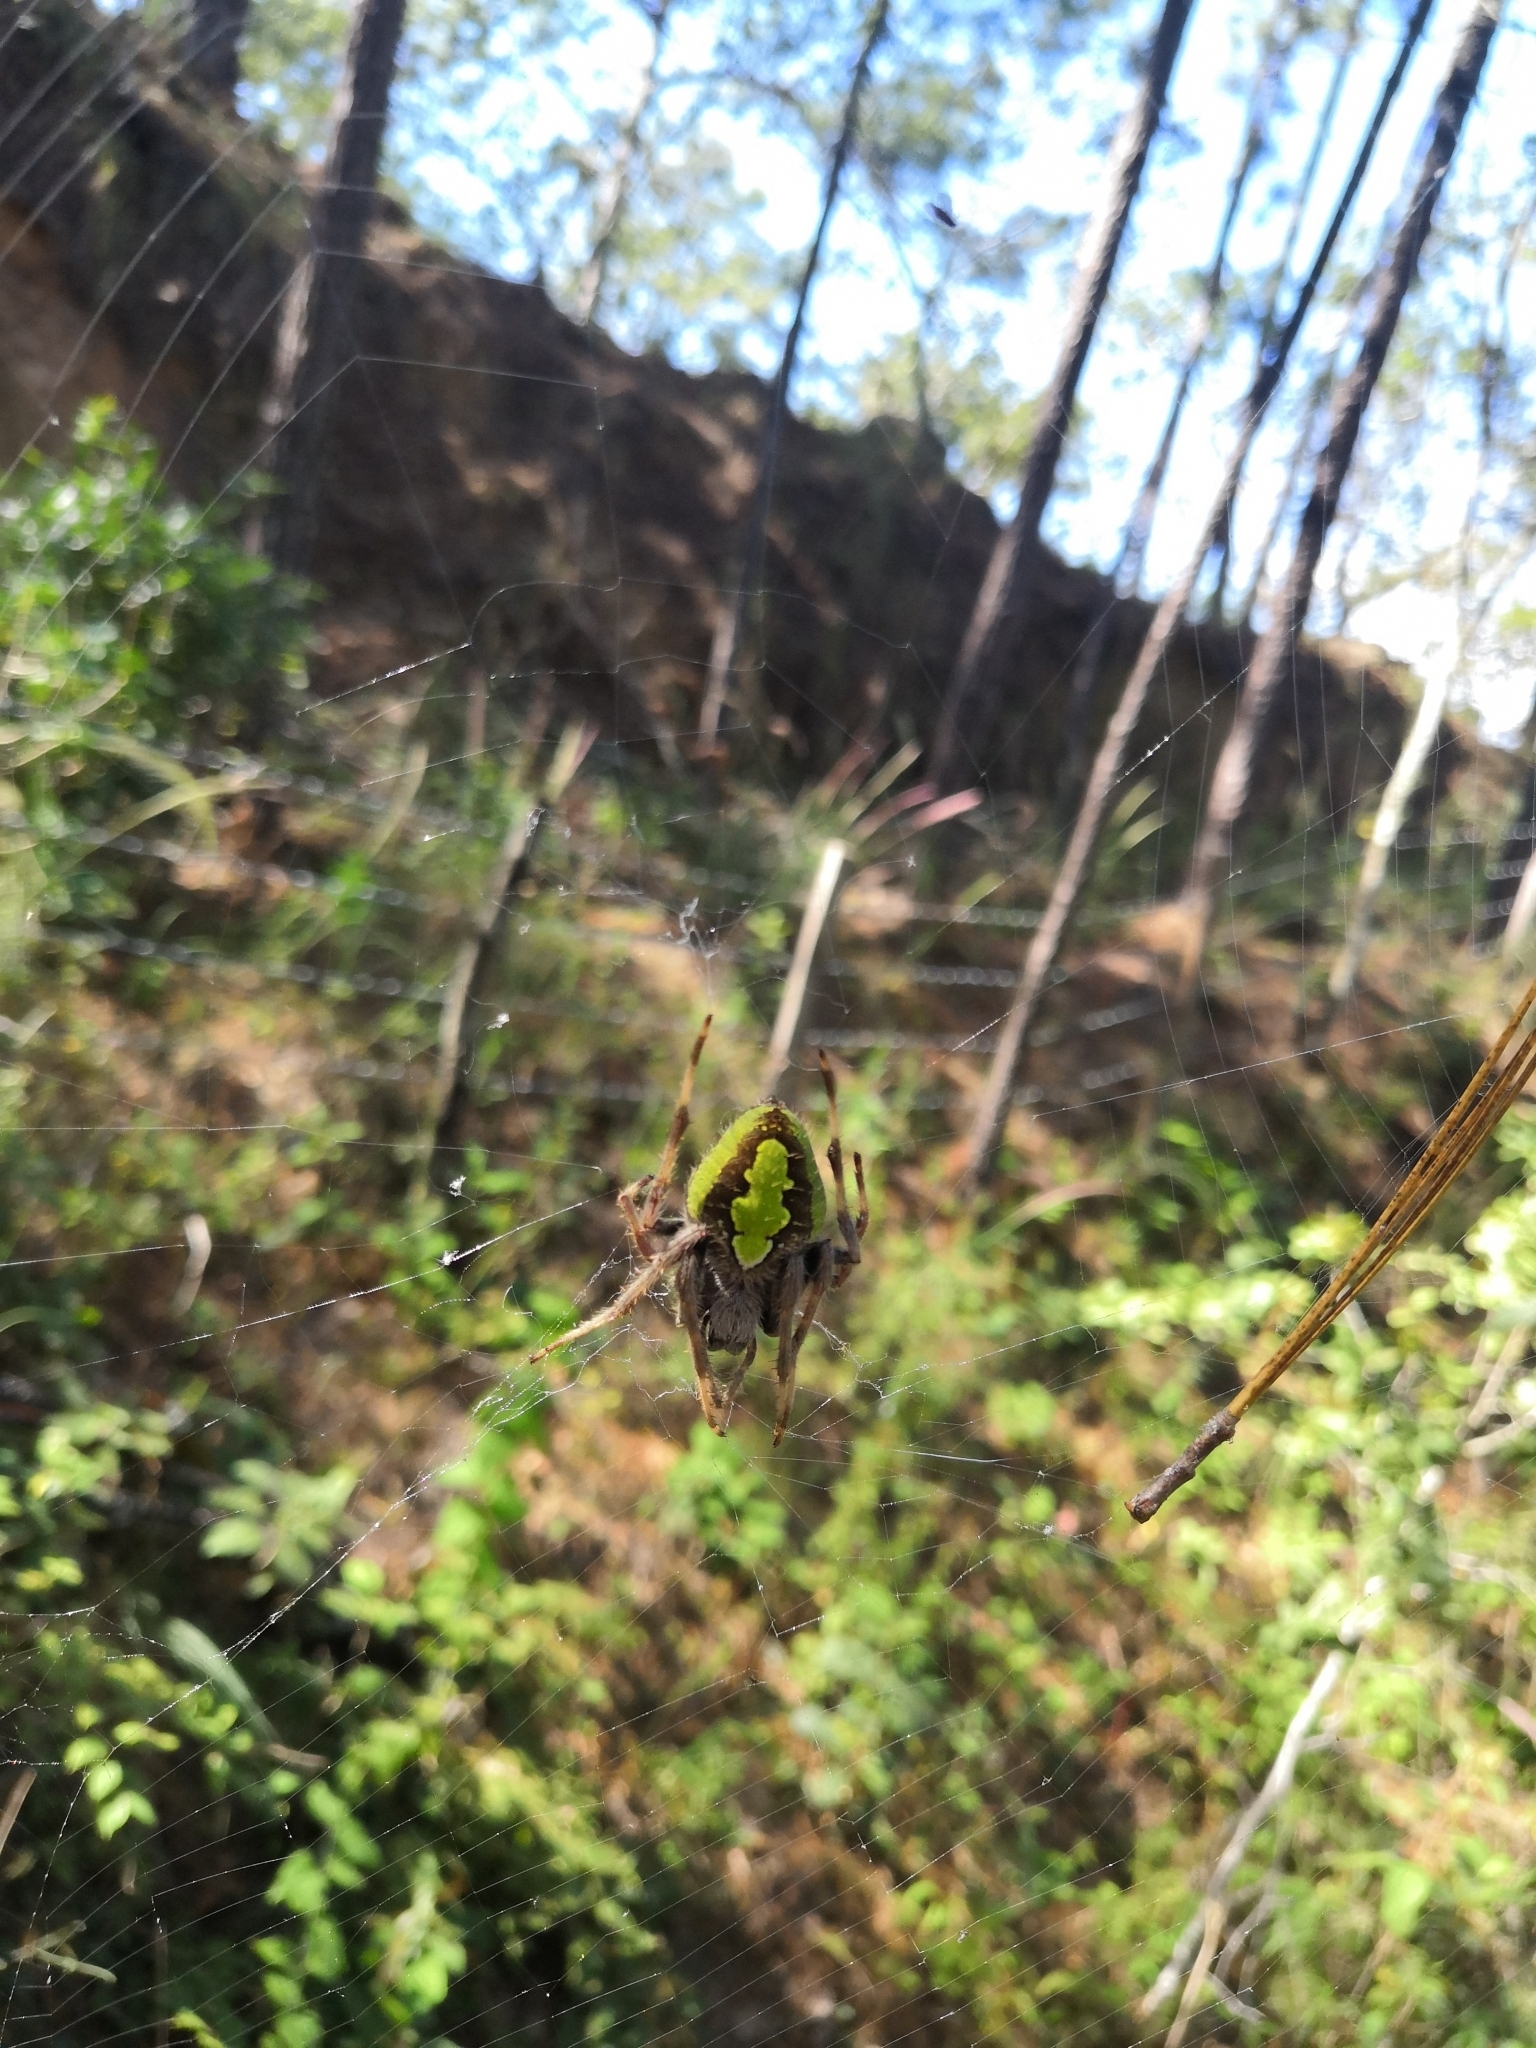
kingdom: Animalia
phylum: Arthropoda
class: Arachnida
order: Araneae
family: Araneidae
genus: Eriophora
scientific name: Eriophora ravilla
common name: Orb weavers
